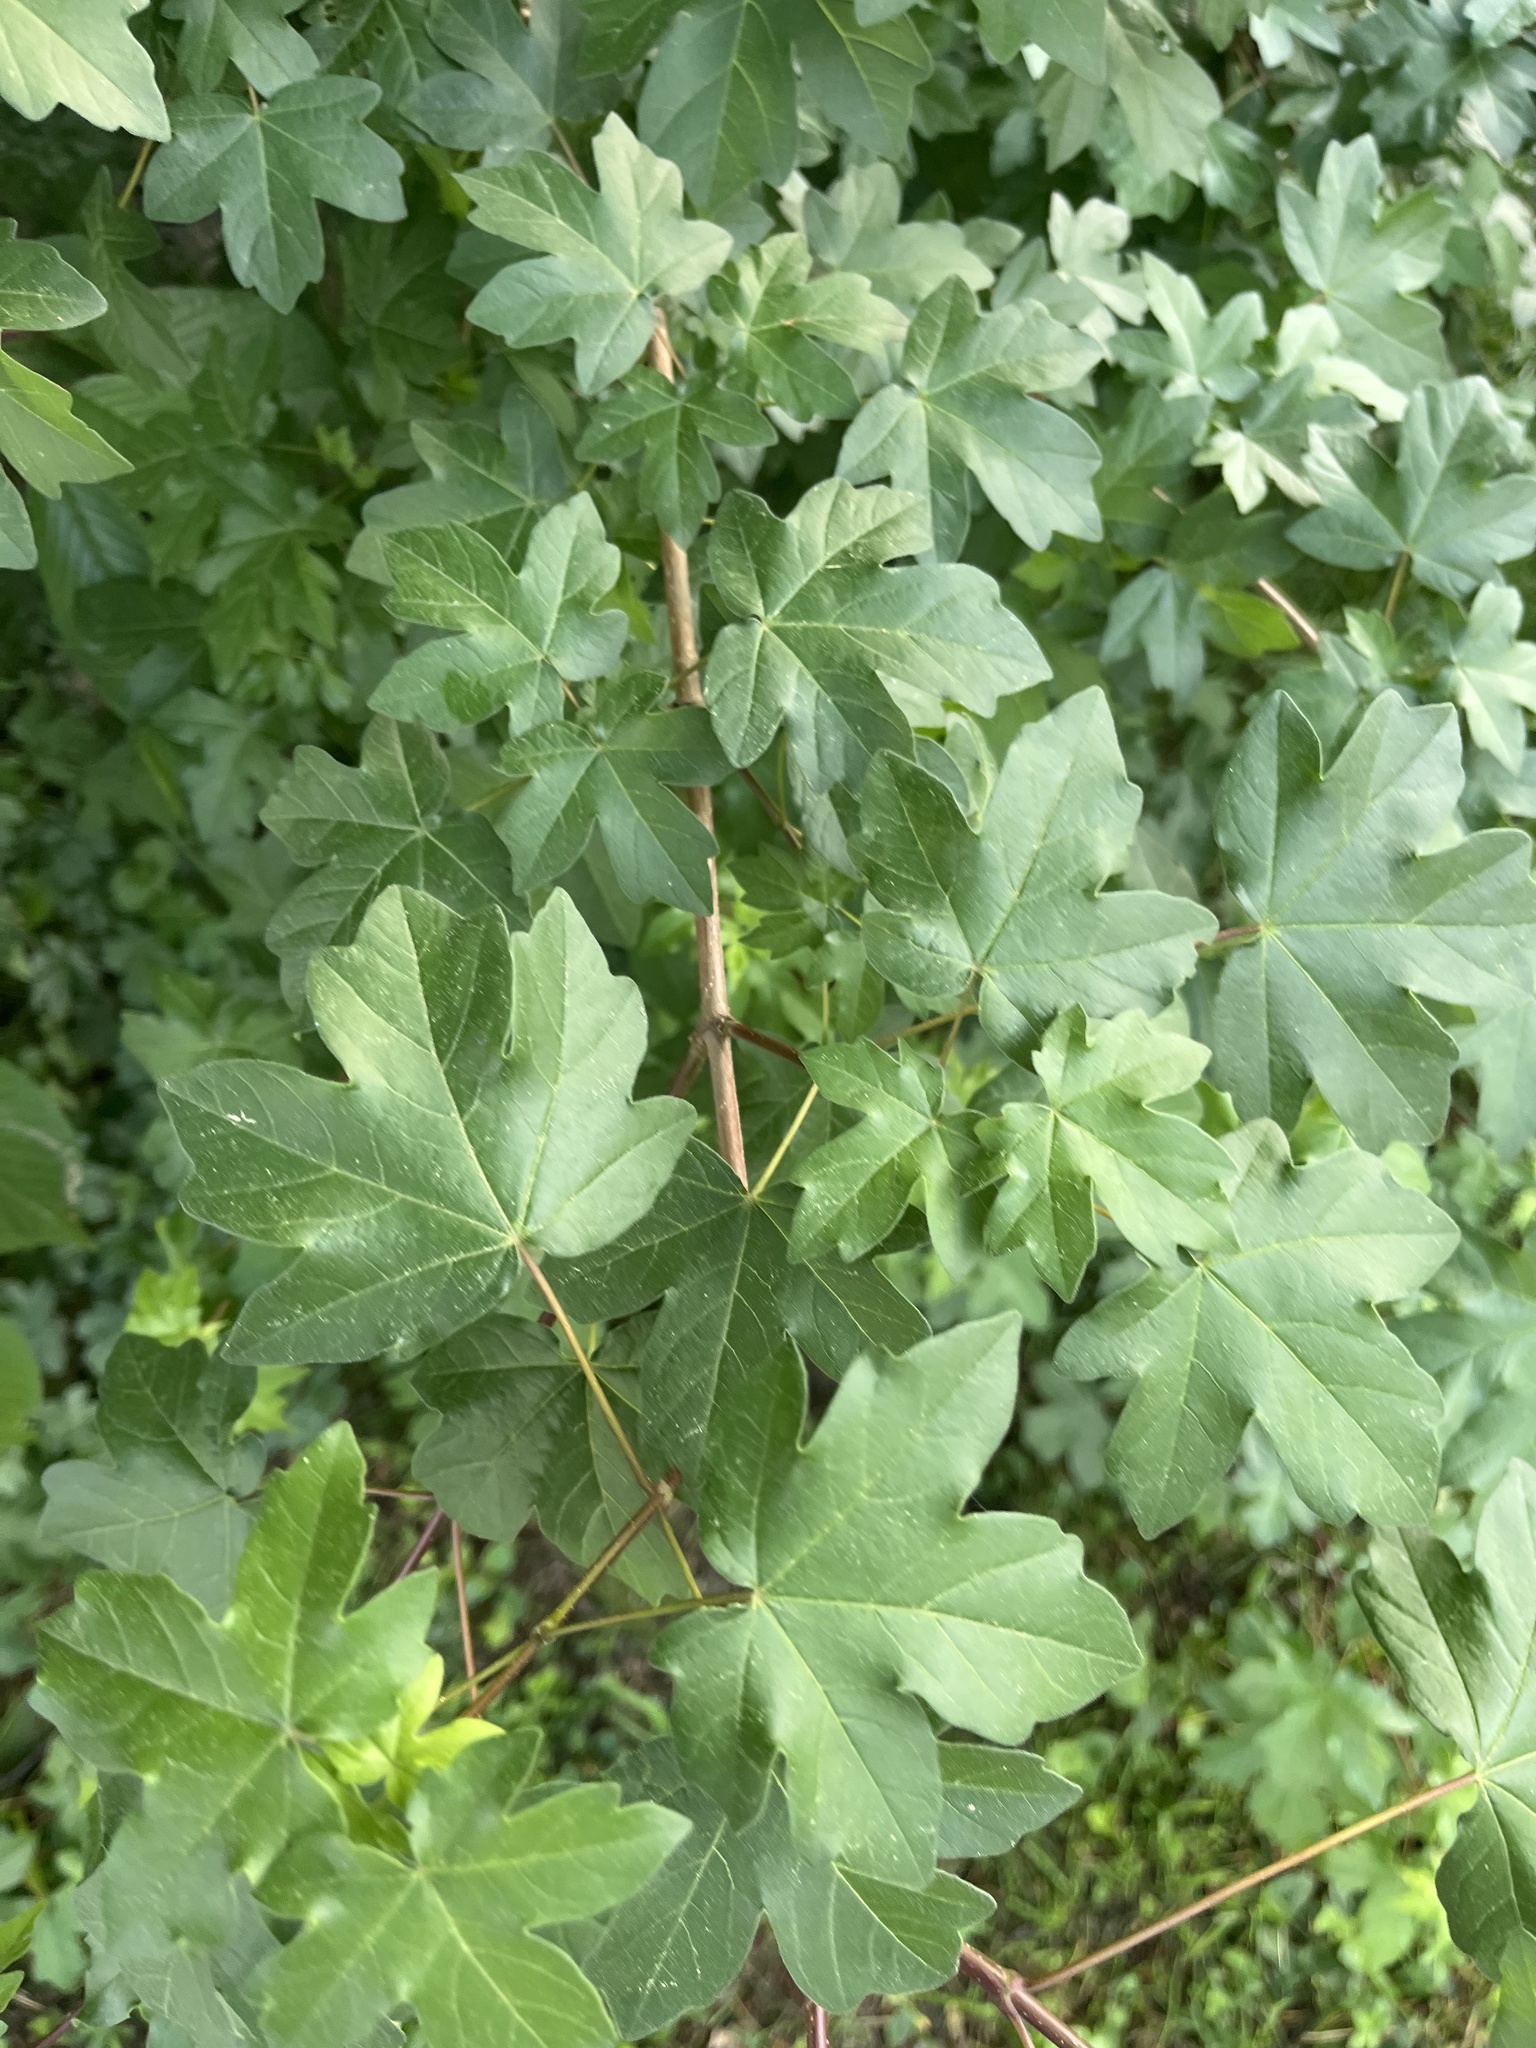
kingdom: Plantae
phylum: Tracheophyta
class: Magnoliopsida
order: Sapindales
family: Sapindaceae
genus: Acer
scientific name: Acer campestre
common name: Field maple
